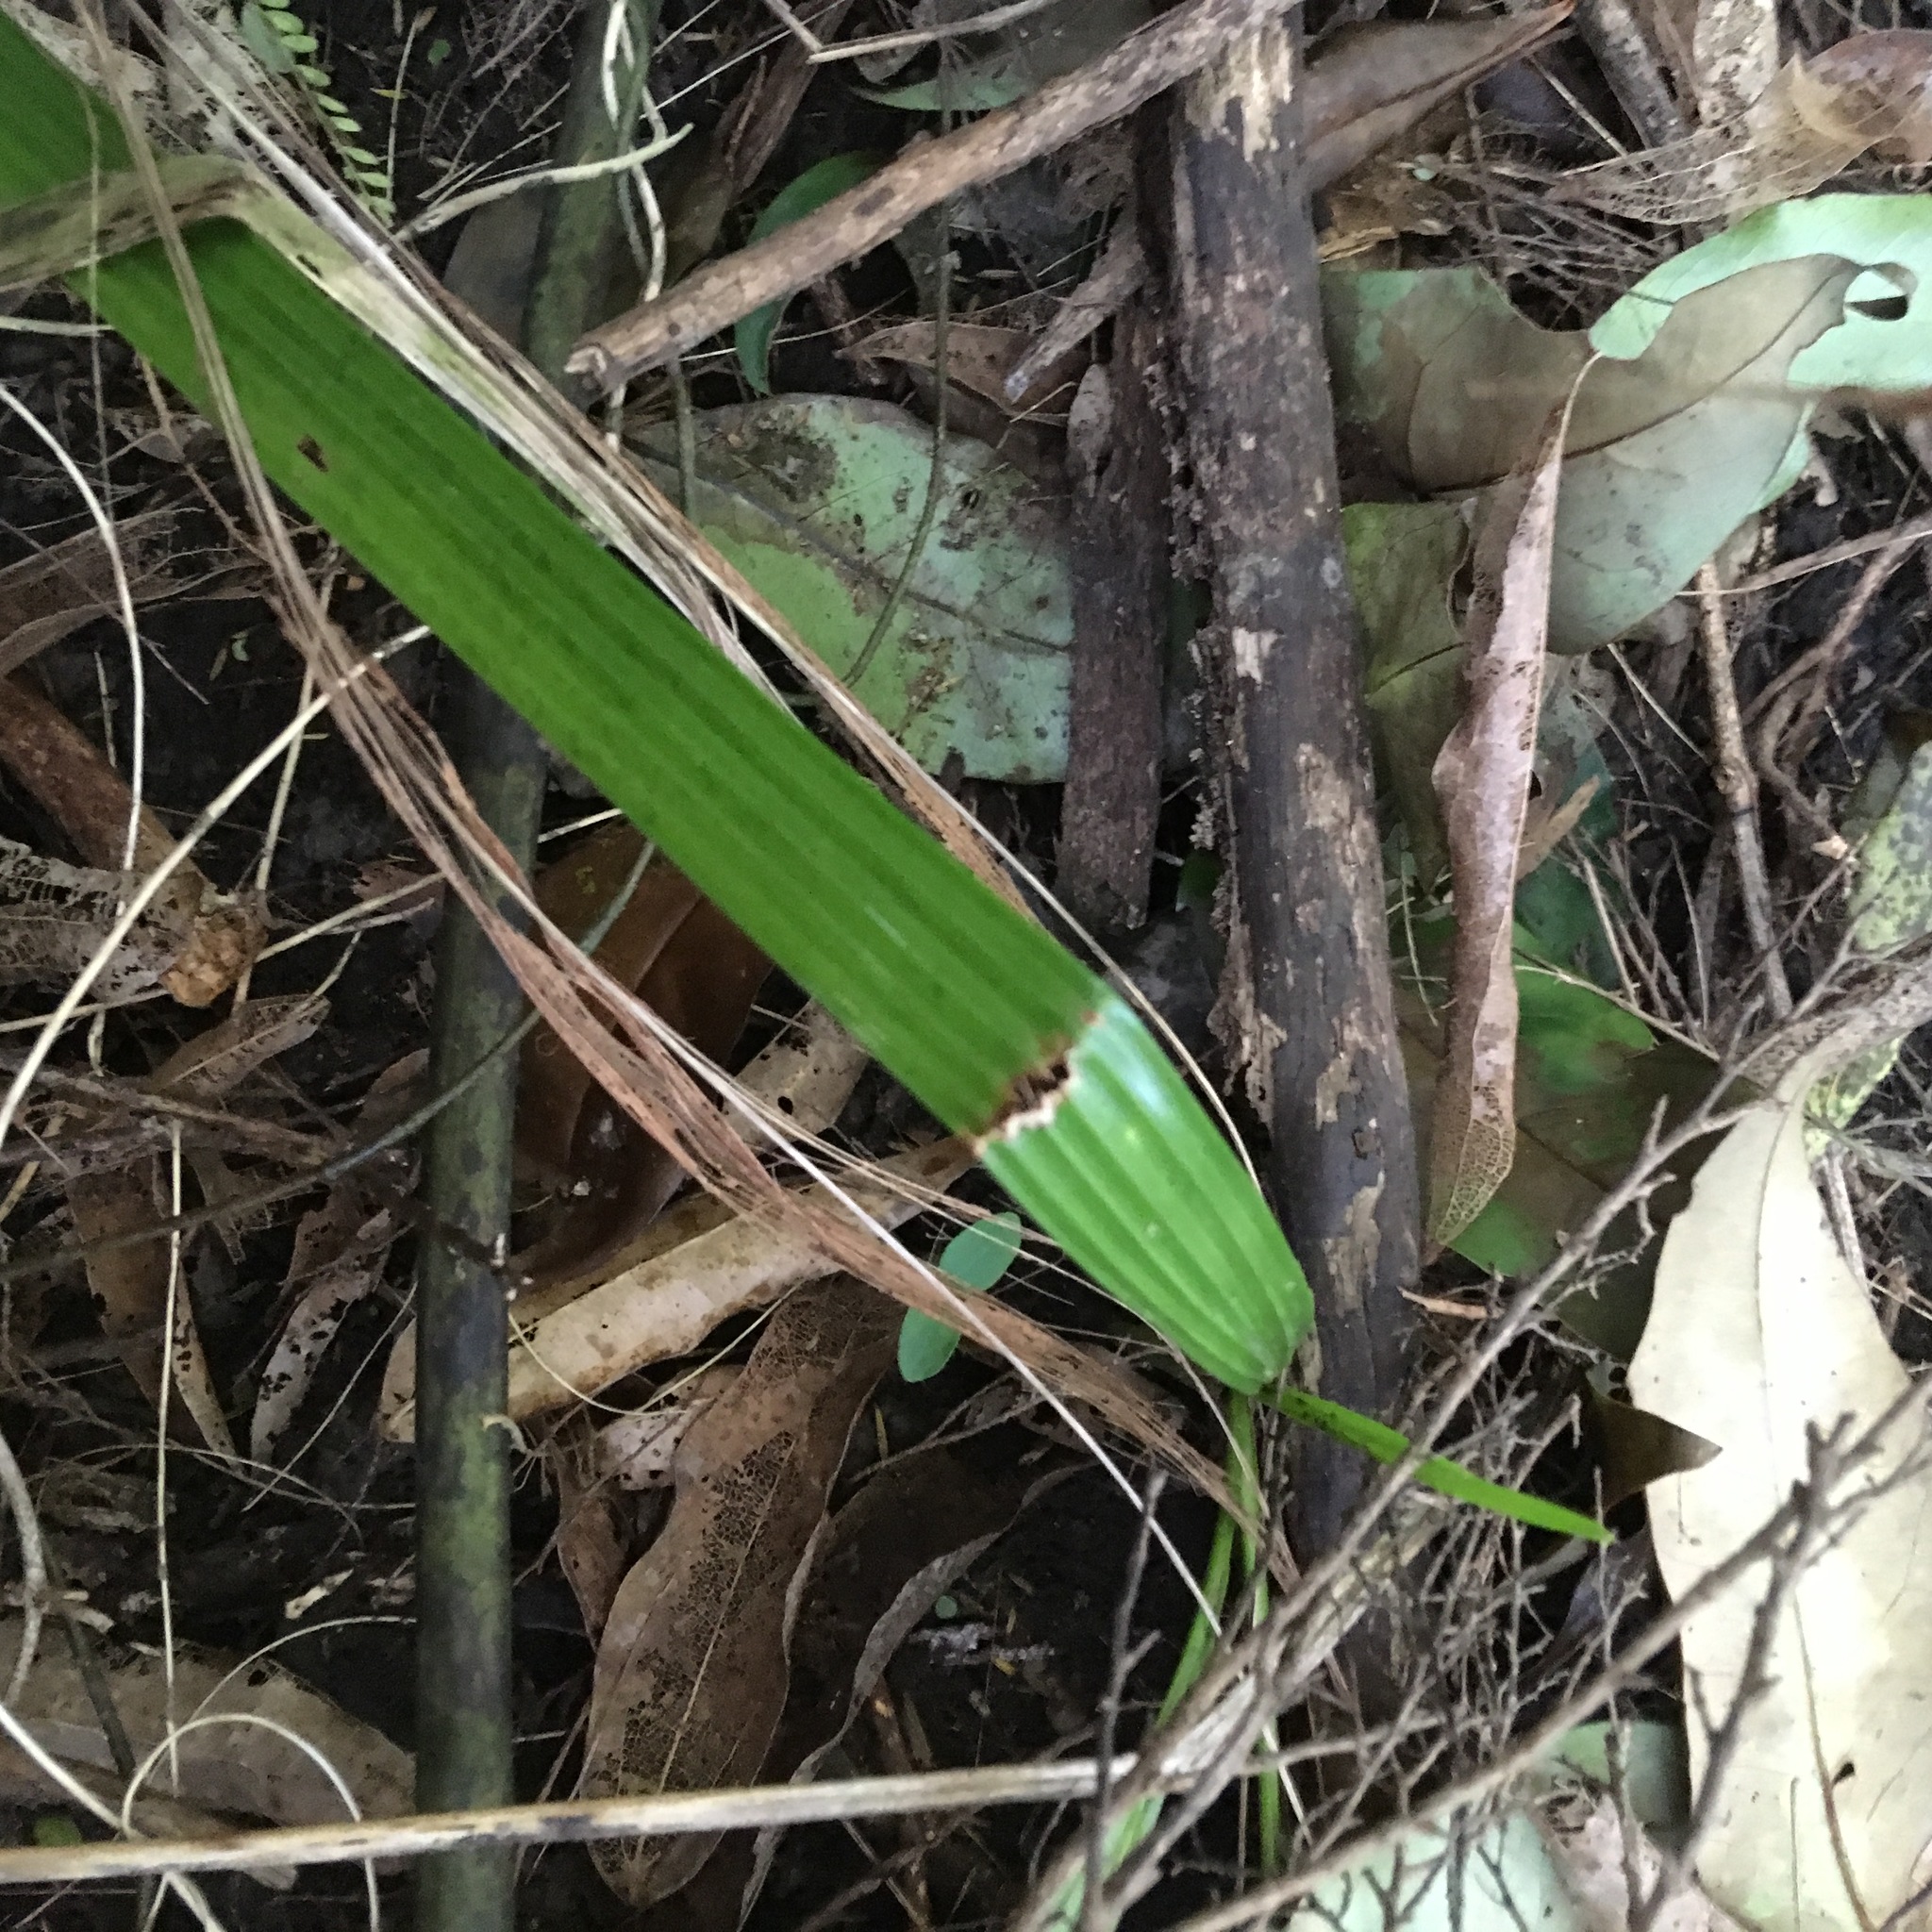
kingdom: Plantae
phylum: Tracheophyta
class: Liliopsida
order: Arecales
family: Arecaceae
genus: Phoenix
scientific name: Phoenix canariensis
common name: Canary island date palm
